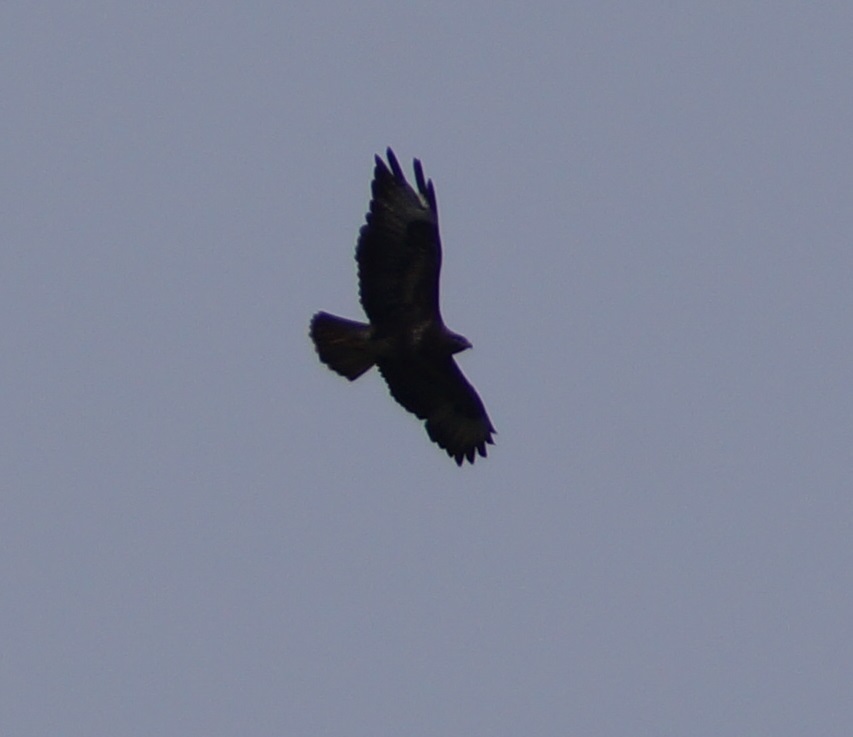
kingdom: Animalia
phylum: Chordata
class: Aves
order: Accipitriformes
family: Accipitridae
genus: Buteo
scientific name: Buteo buteo
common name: Common buzzard
